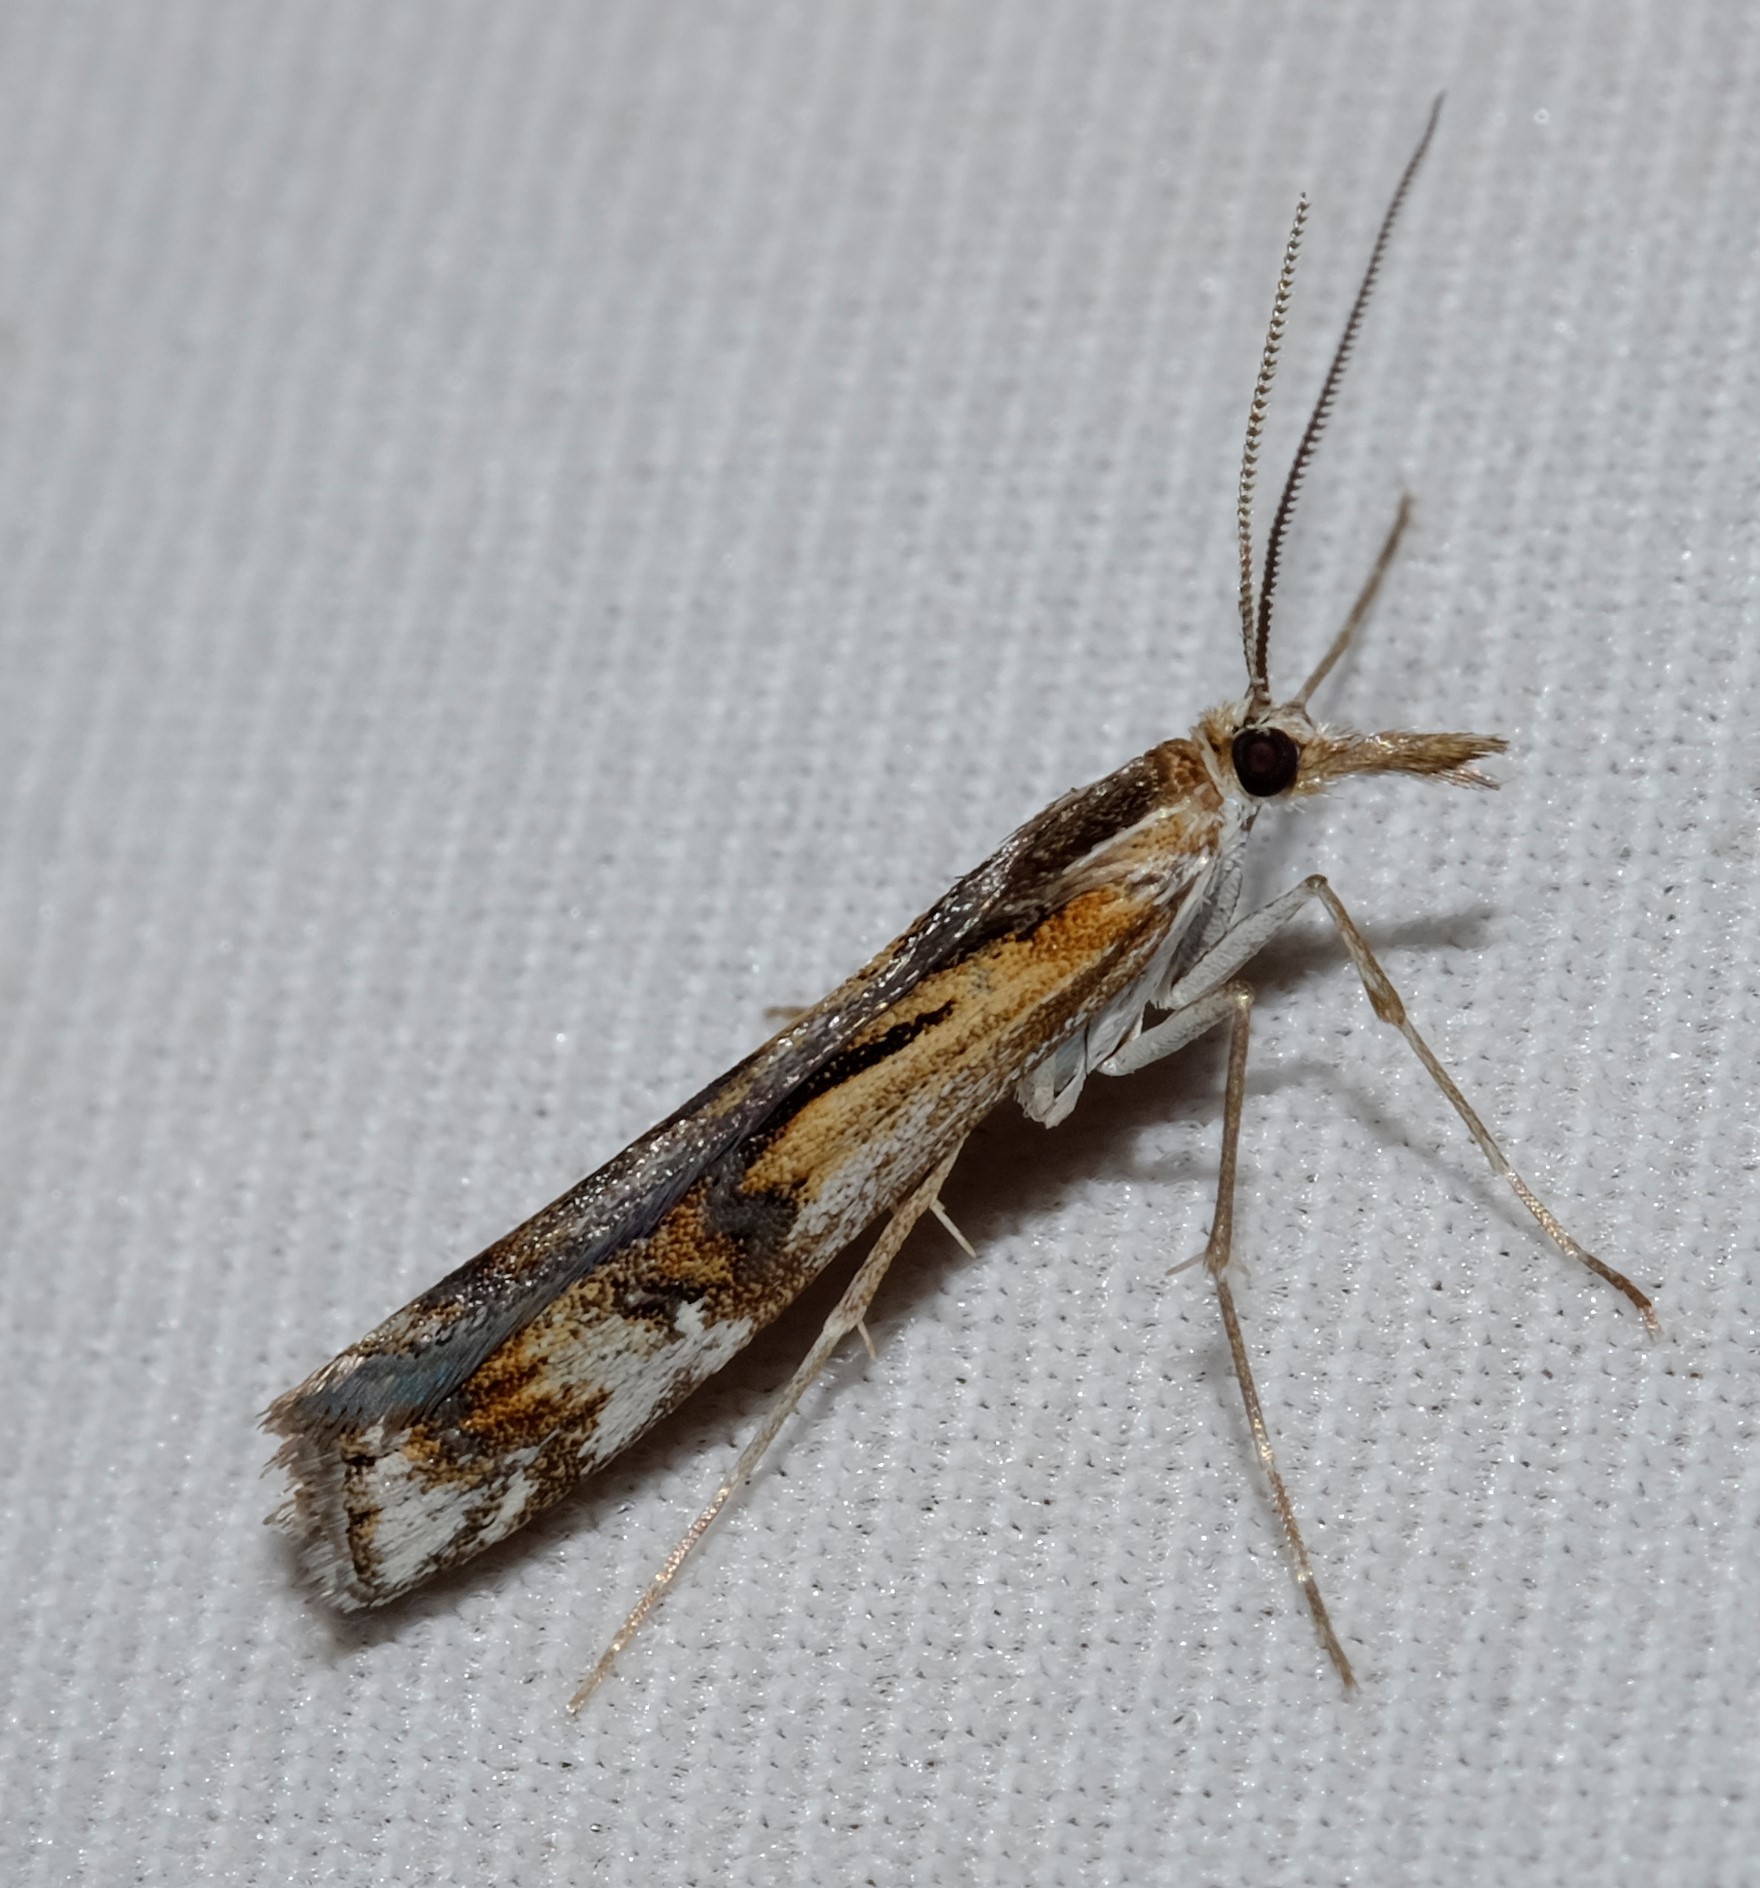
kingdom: Animalia
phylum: Arthropoda
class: Insecta
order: Lepidoptera
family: Crambidae
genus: Hednota
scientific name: Hednota pedionoma
